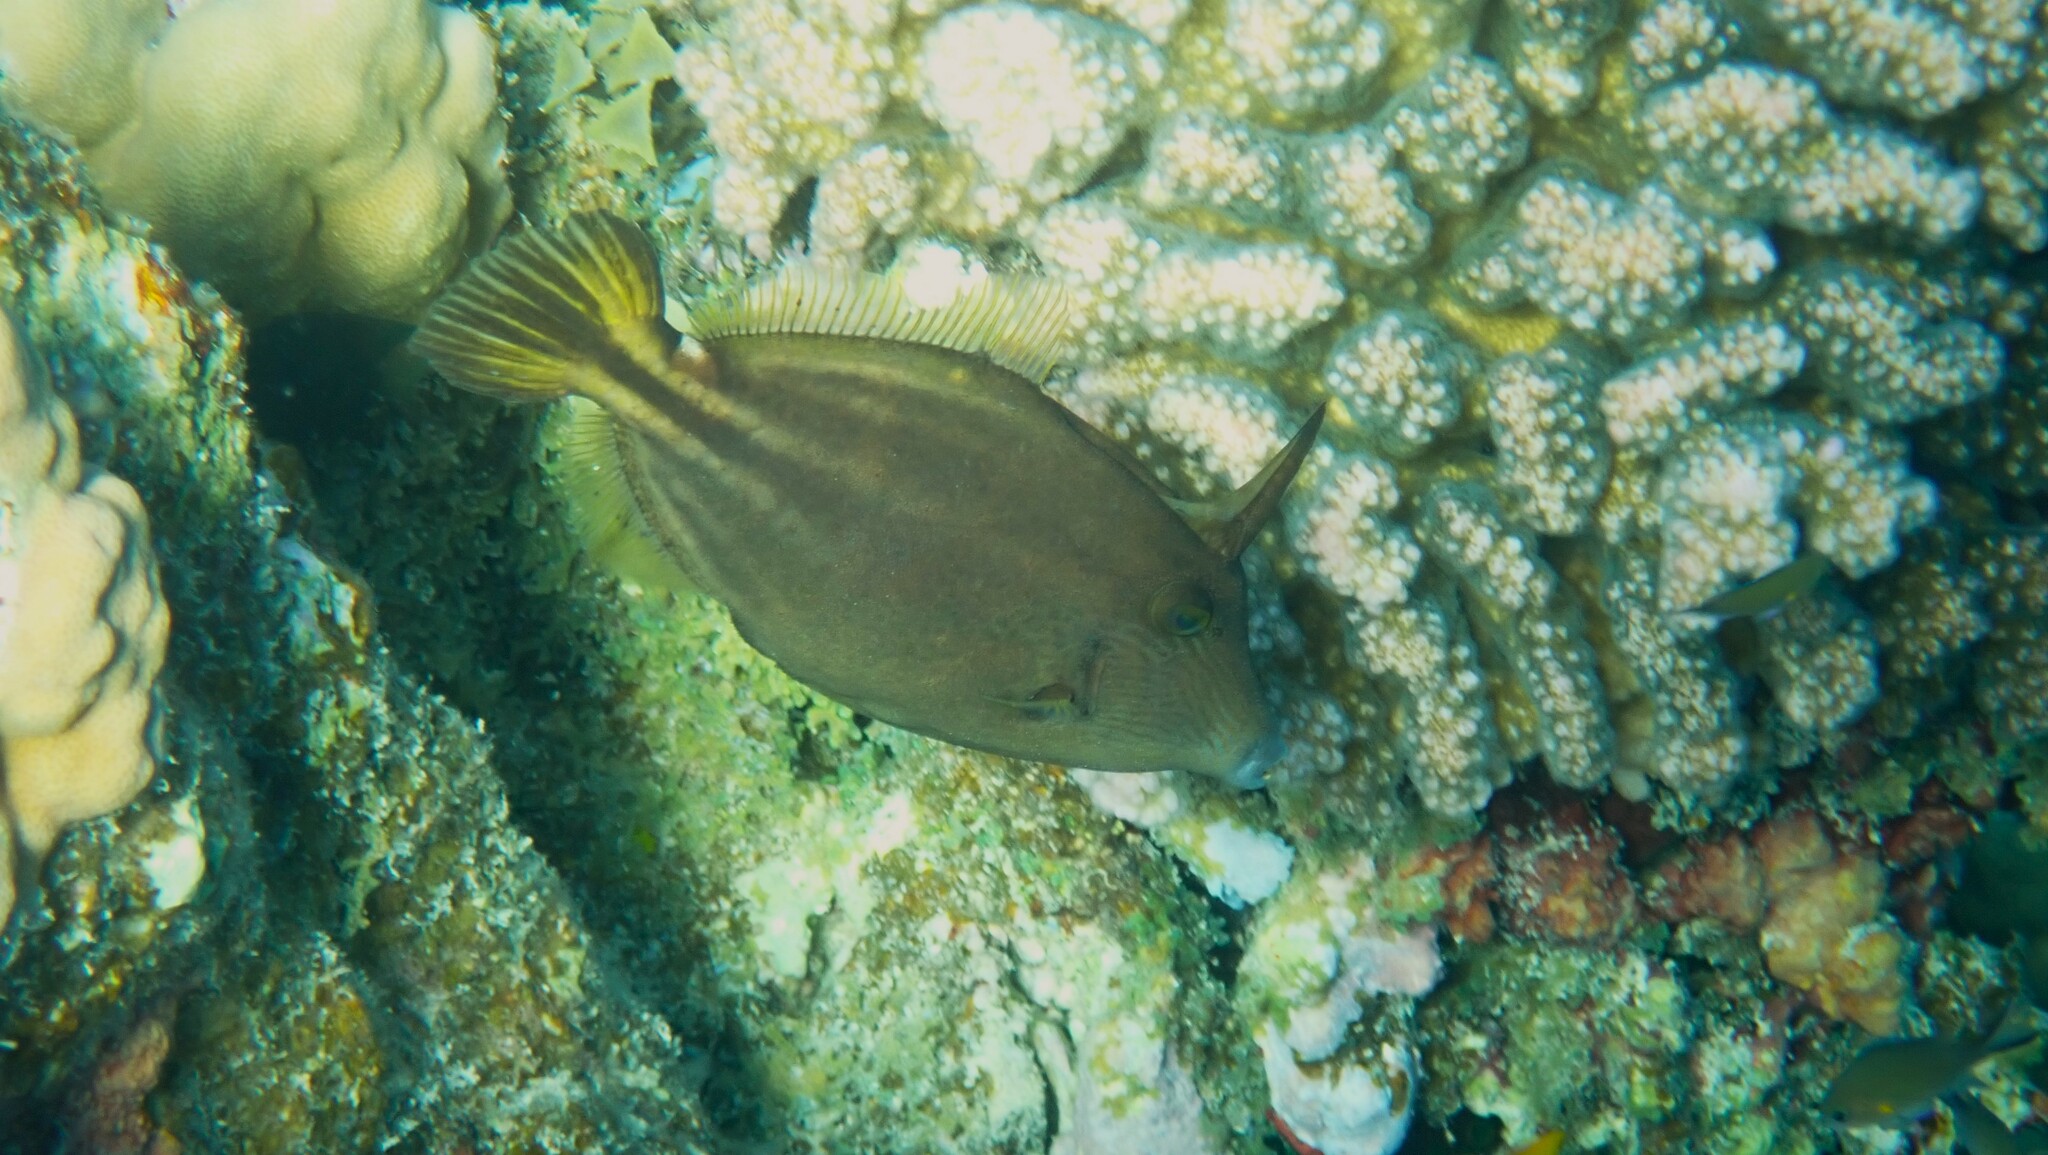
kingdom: Animalia
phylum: Chordata
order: Tetraodontiformes
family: Monacanthidae
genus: Cantherhines
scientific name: Cantherhines pardalis
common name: Honeycomb filefish
